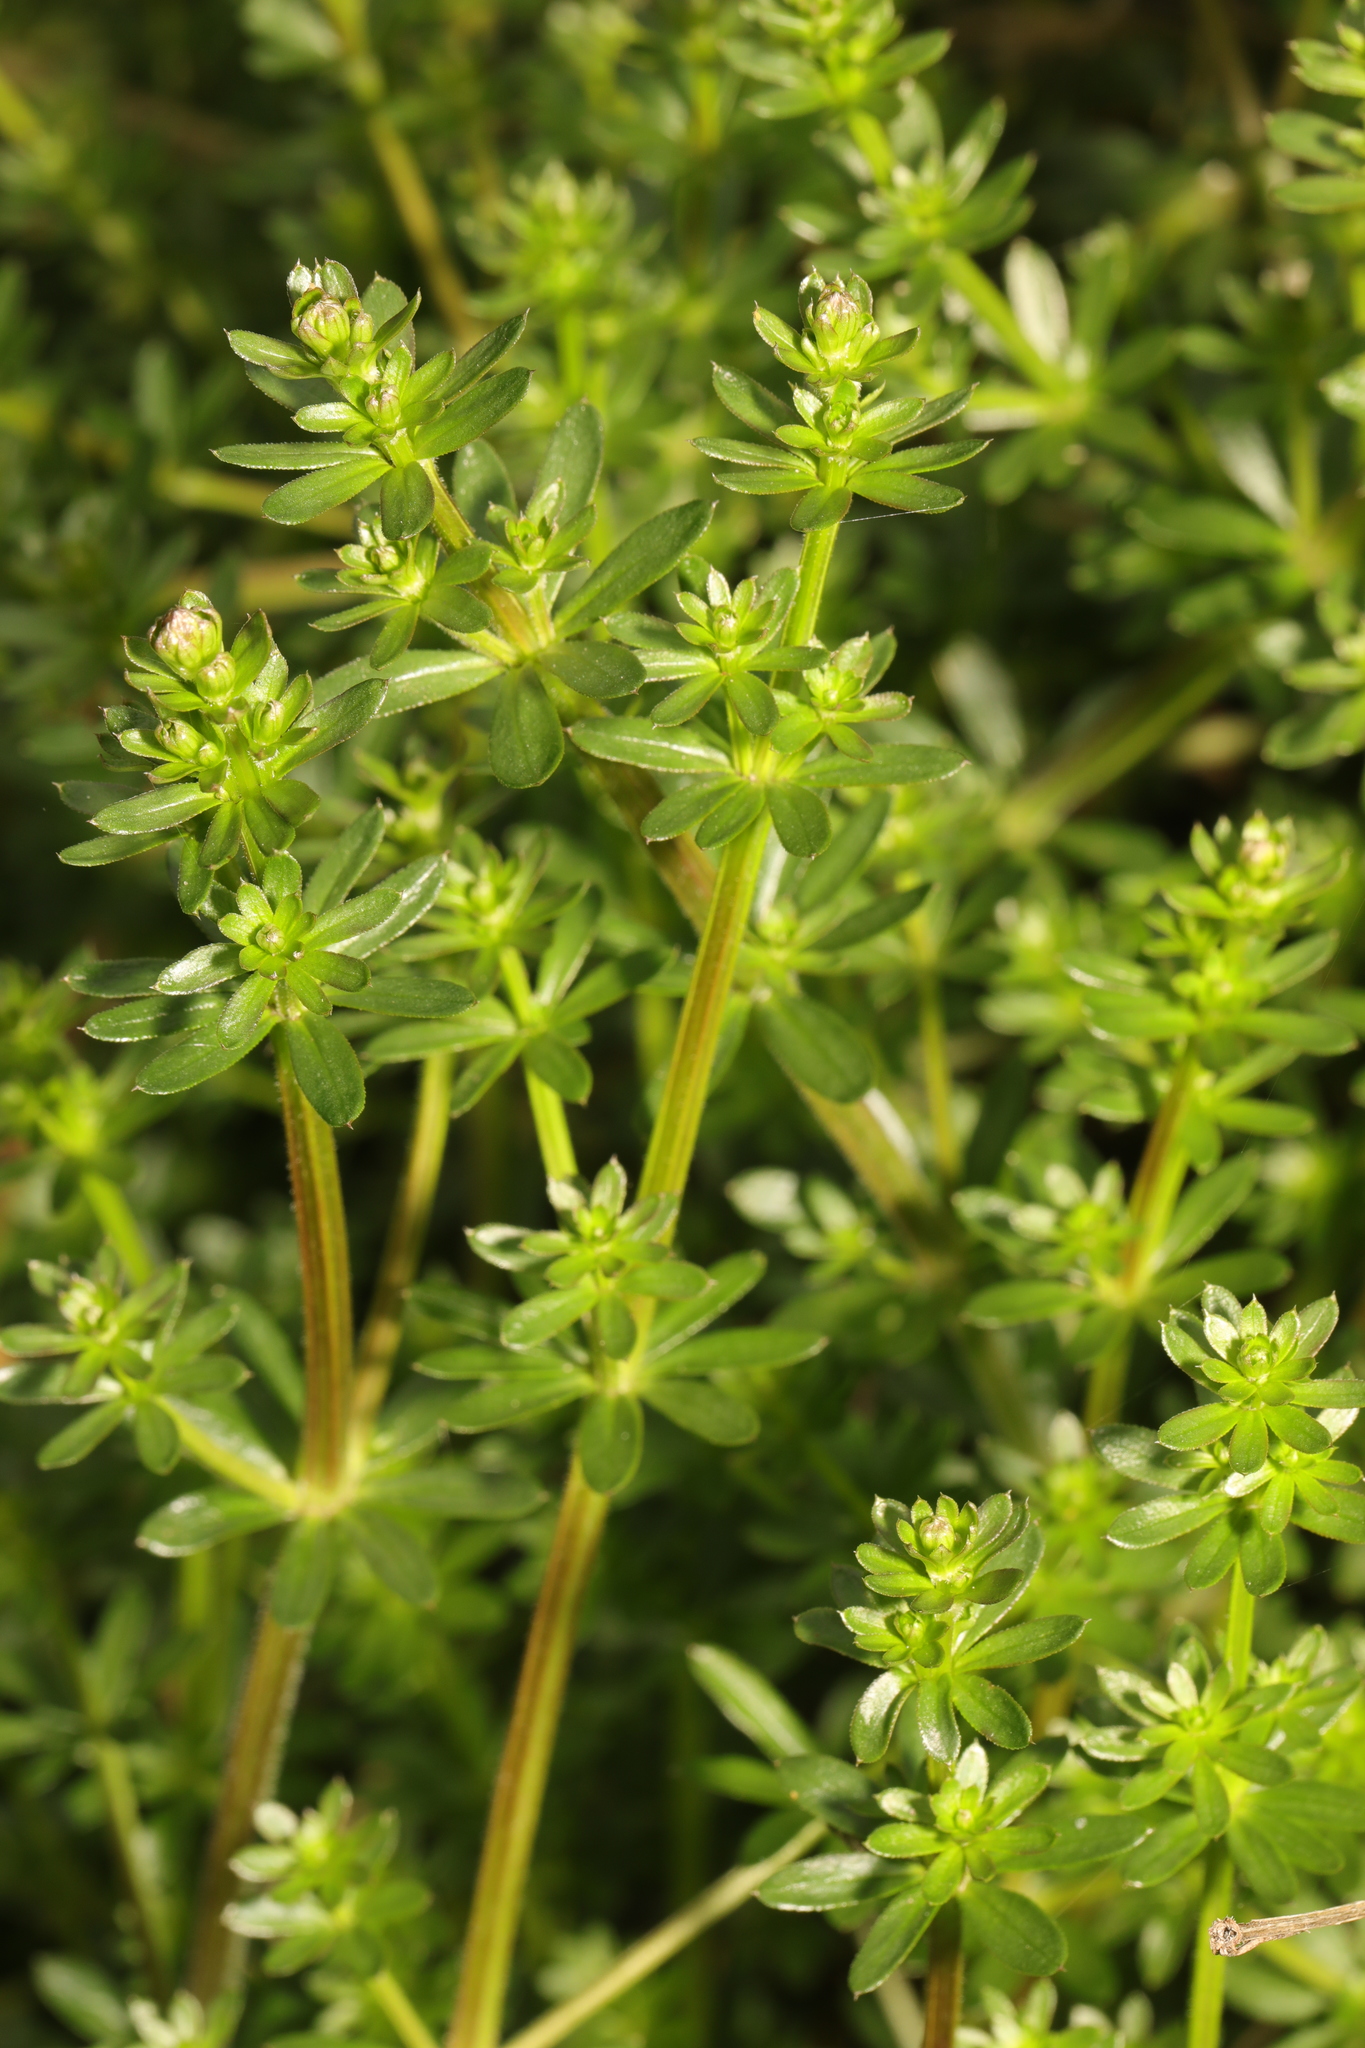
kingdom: Plantae
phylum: Tracheophyta
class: Magnoliopsida
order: Gentianales
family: Rubiaceae
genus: Galium
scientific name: Galium mollugo
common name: Hedge bedstraw
